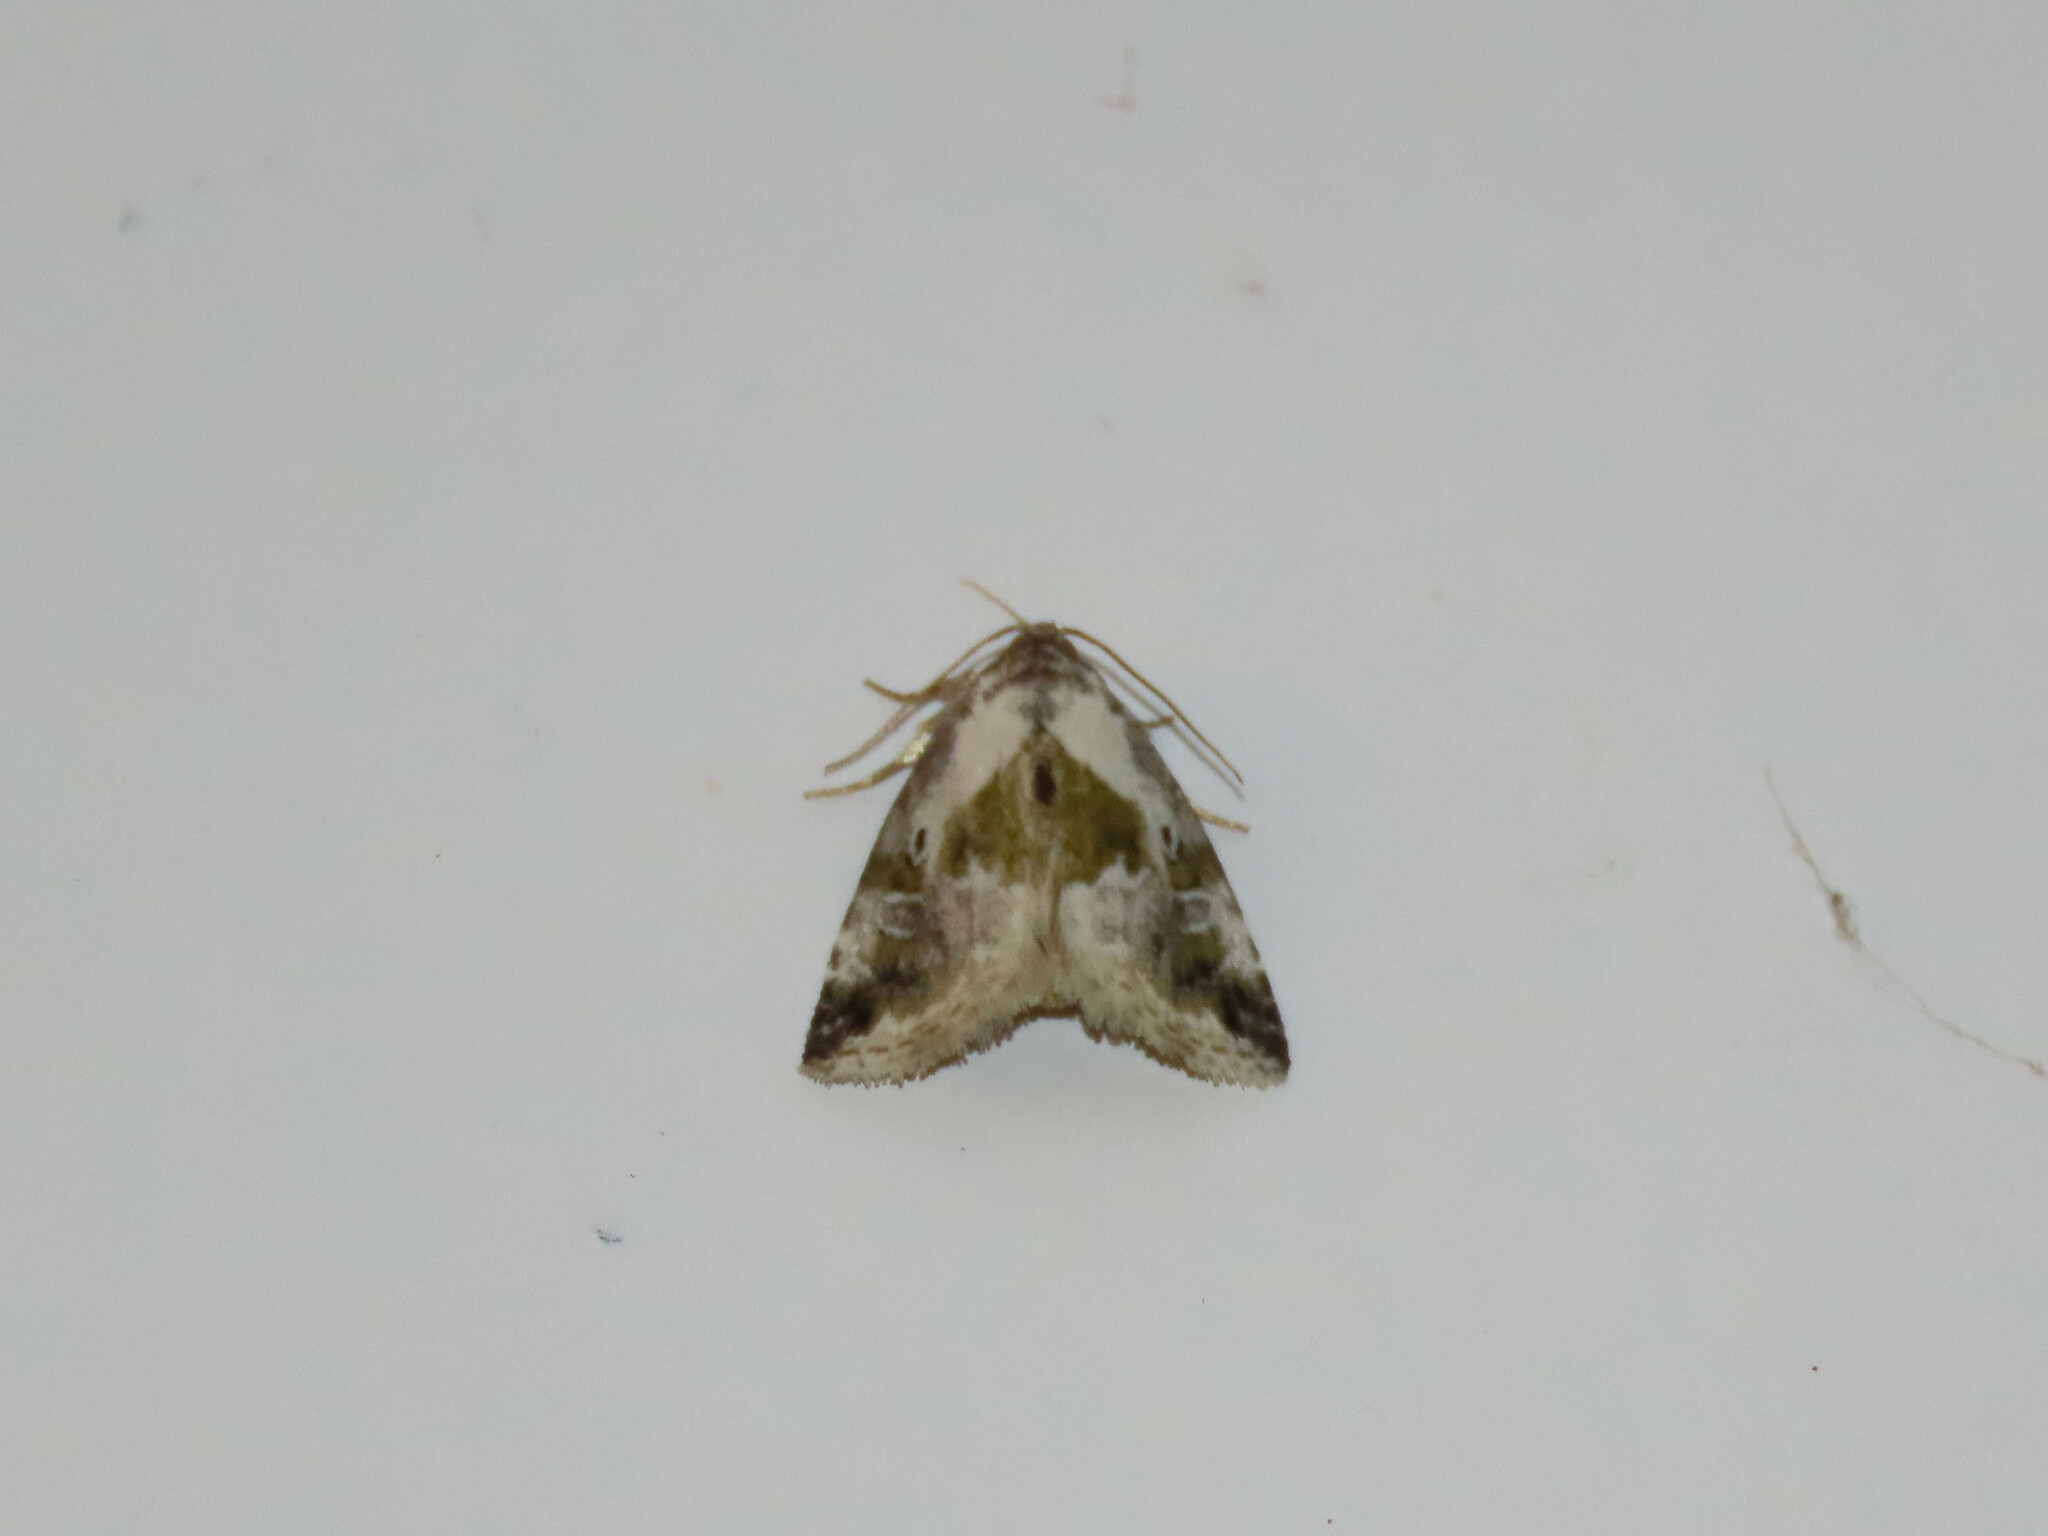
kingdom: Animalia
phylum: Arthropoda
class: Insecta
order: Lepidoptera
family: Noctuidae
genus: Maliattha
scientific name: Maliattha synochitis
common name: Black-dotted glyph
